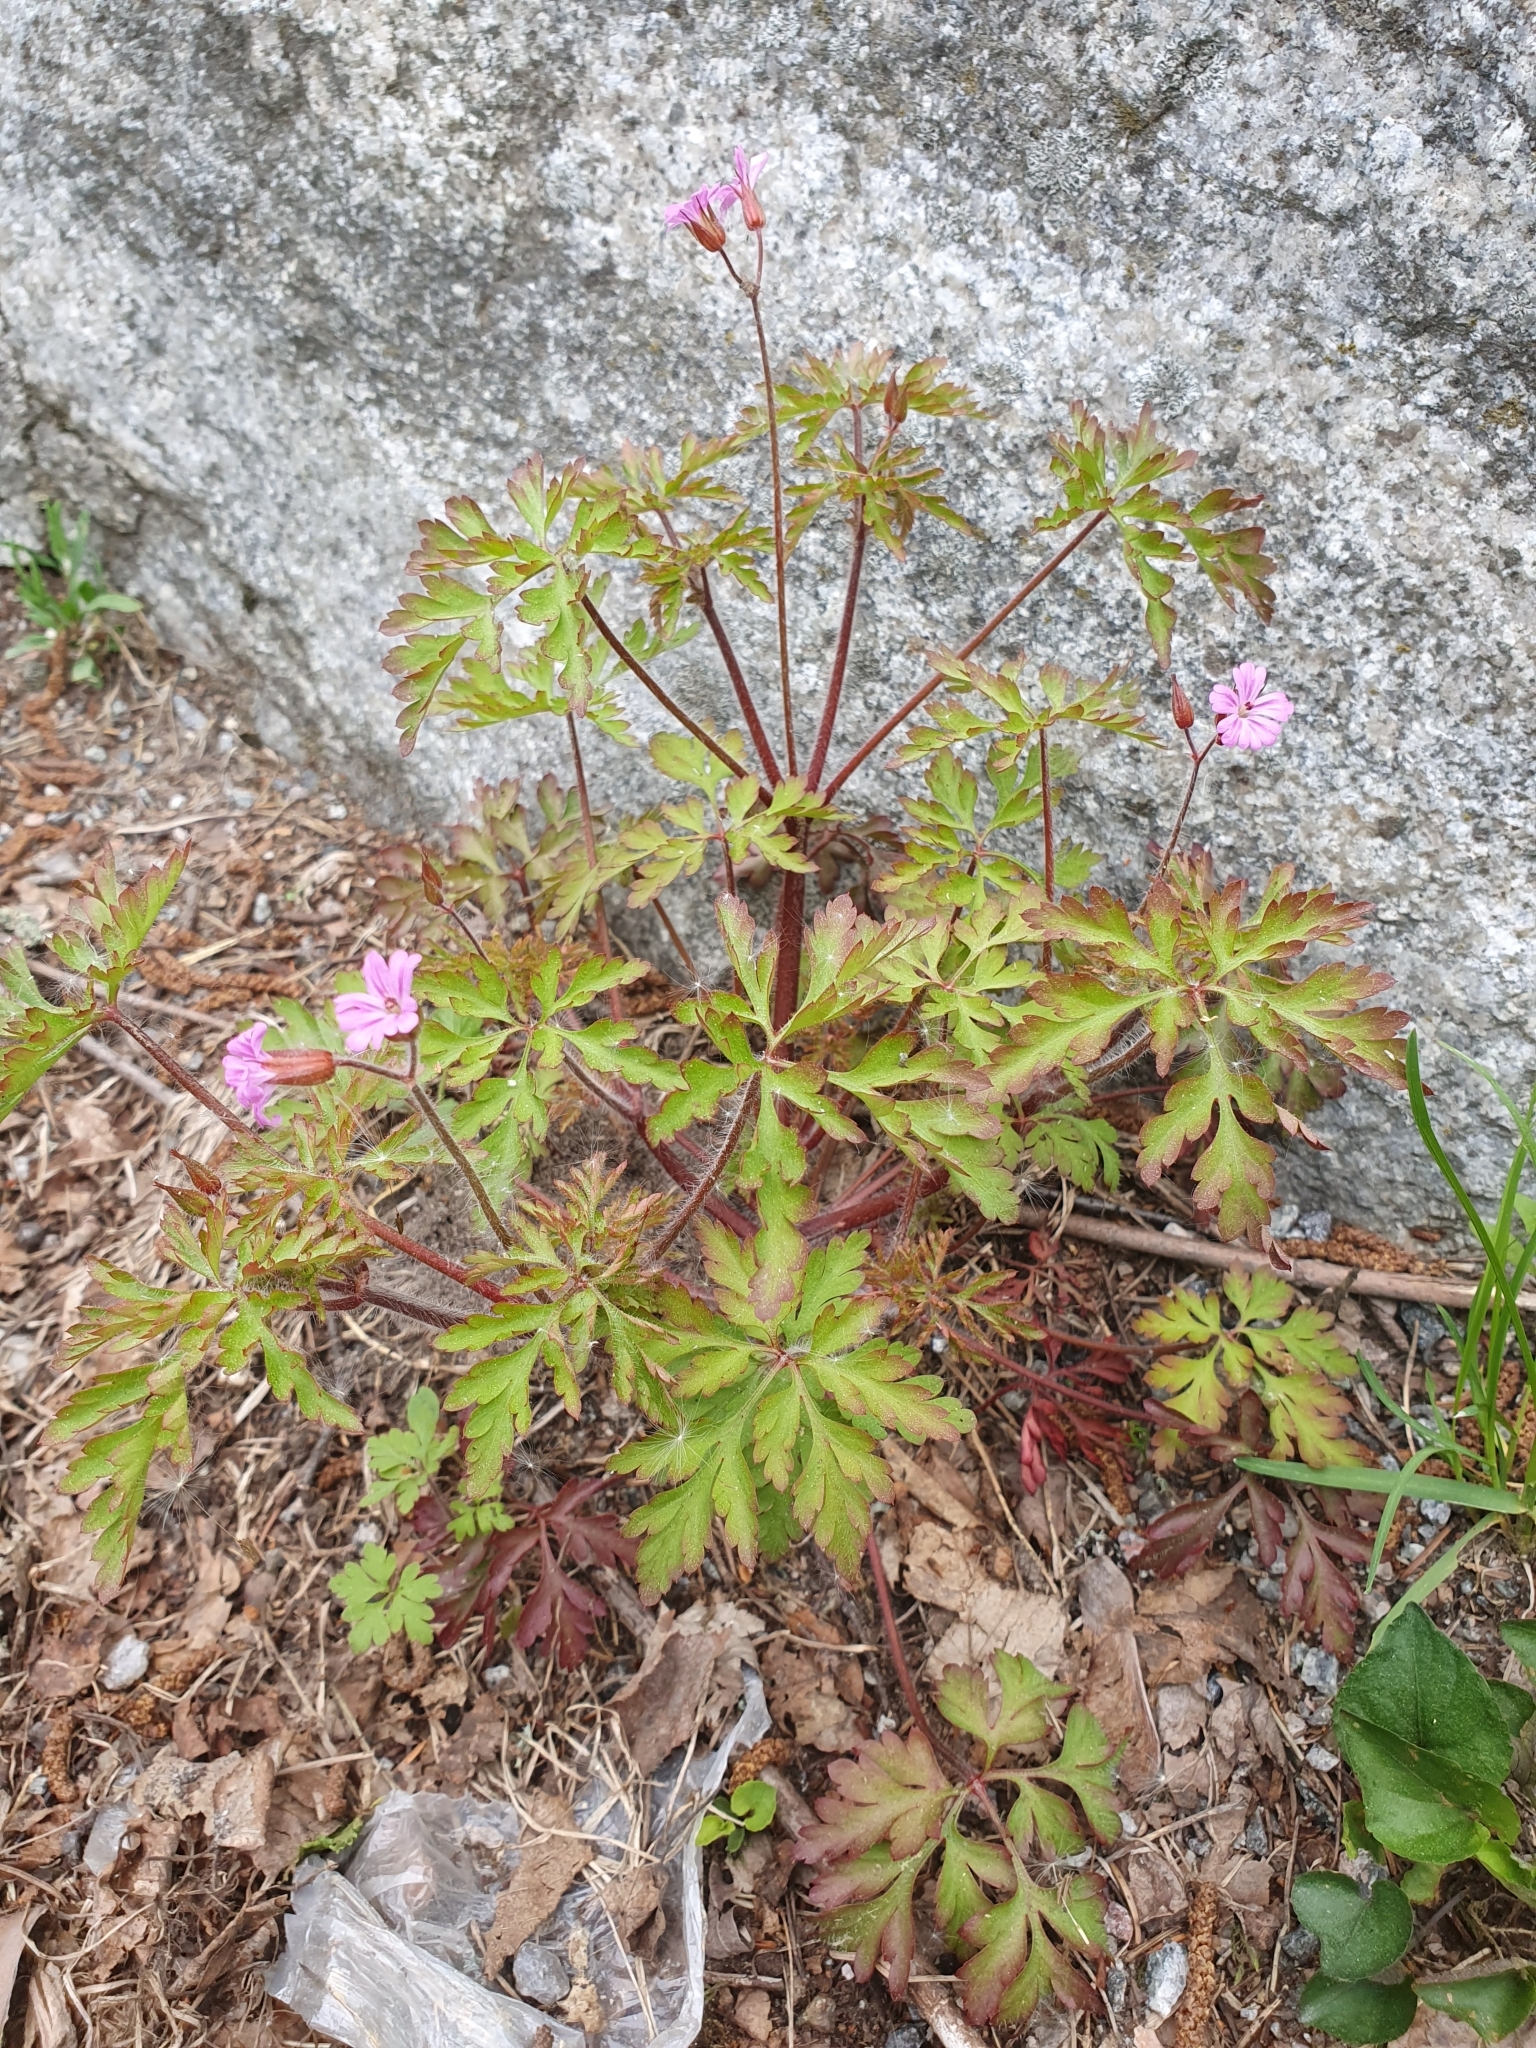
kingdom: Plantae
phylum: Tracheophyta
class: Magnoliopsida
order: Geraniales
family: Geraniaceae
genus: Geranium
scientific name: Geranium robertianum
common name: Herb-robert
